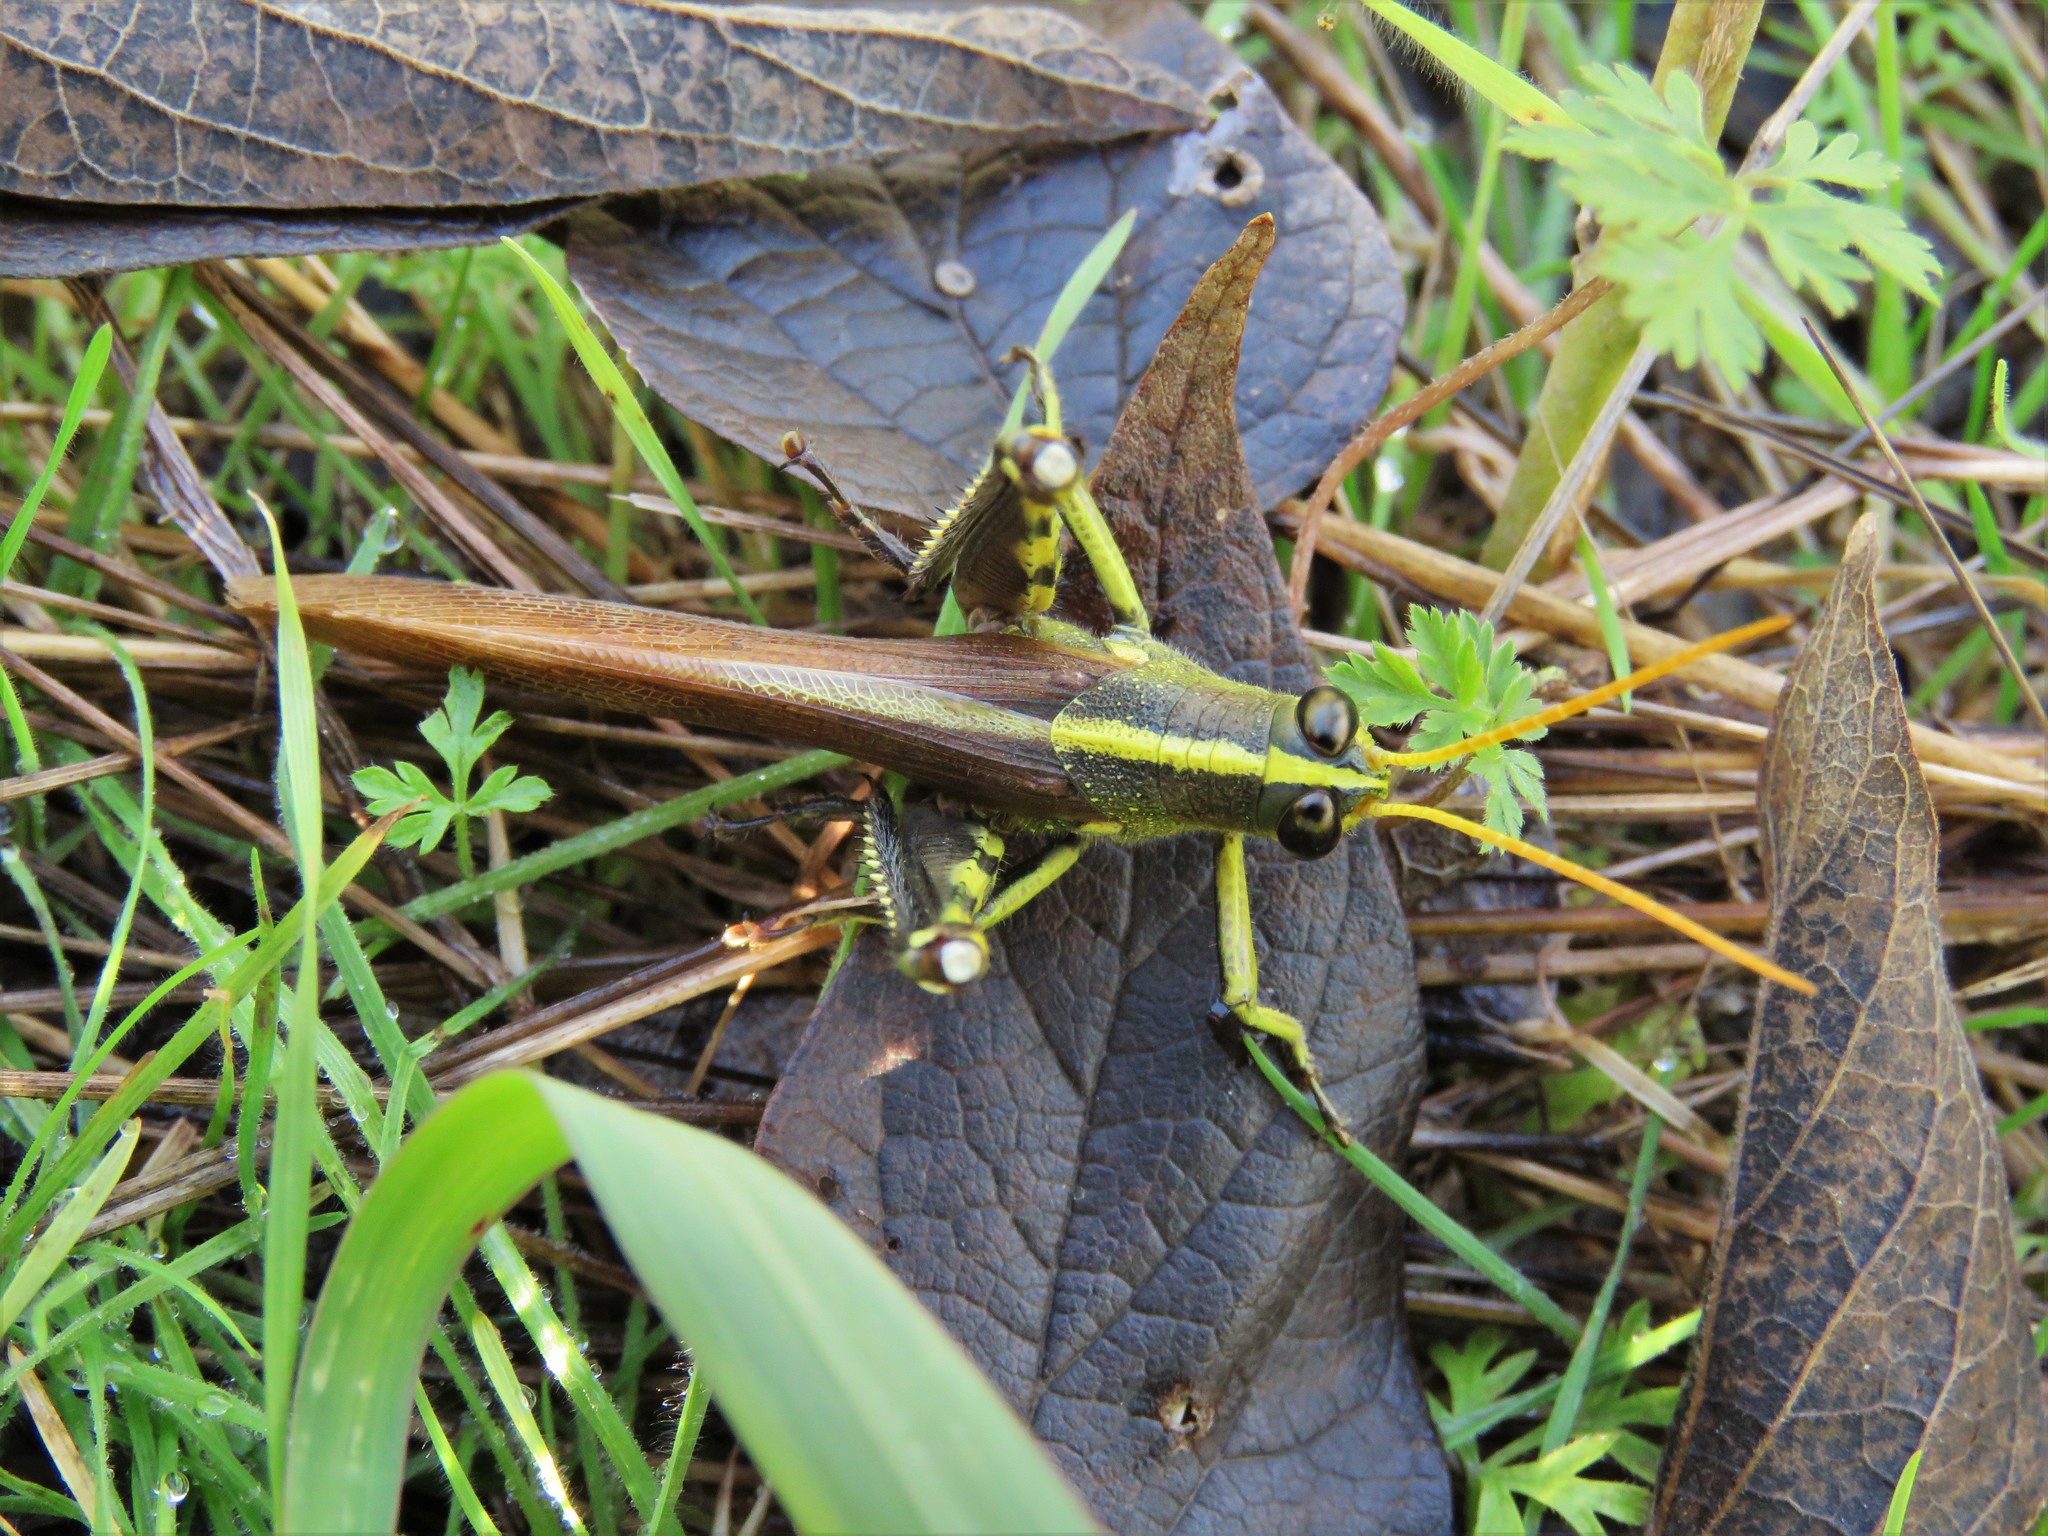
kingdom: Animalia
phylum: Arthropoda
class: Insecta
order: Orthoptera
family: Acrididae
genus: Schistocerca
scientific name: Schistocerca obscura
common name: Obscure bird grasshopper
